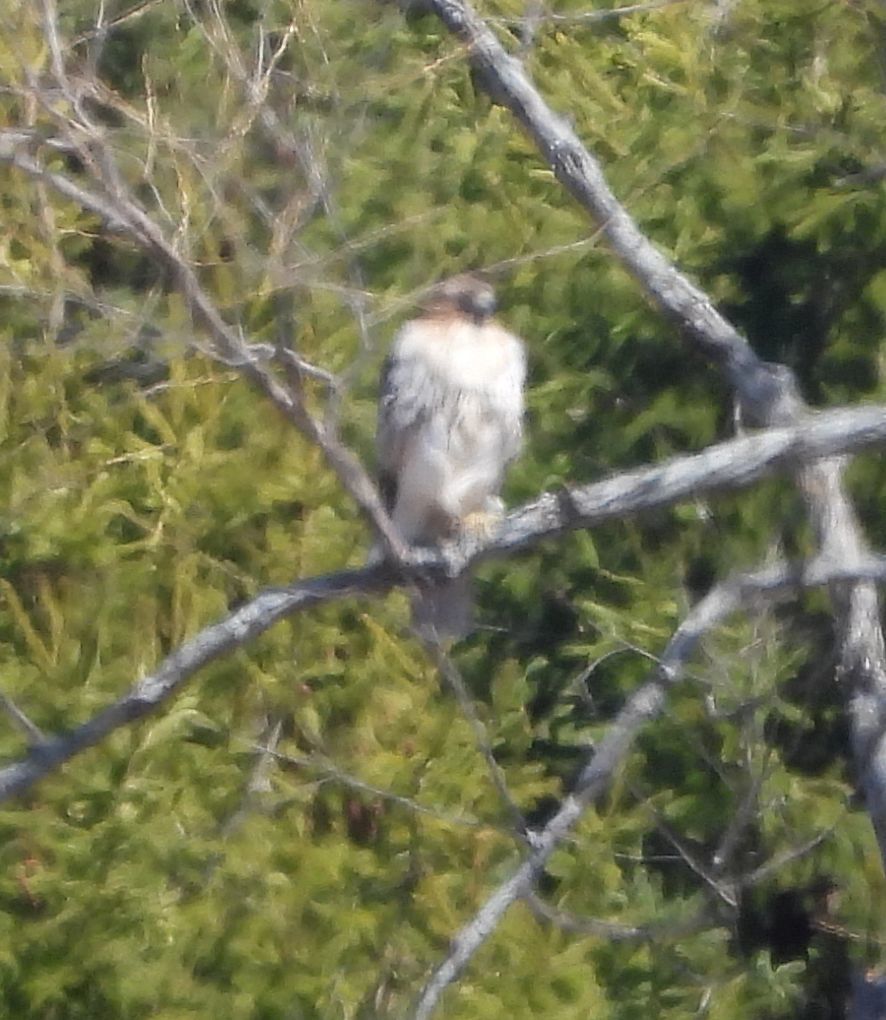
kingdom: Animalia
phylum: Chordata
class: Aves
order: Accipitriformes
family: Accipitridae
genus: Buteo
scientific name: Buteo jamaicensis
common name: Red-tailed hawk
